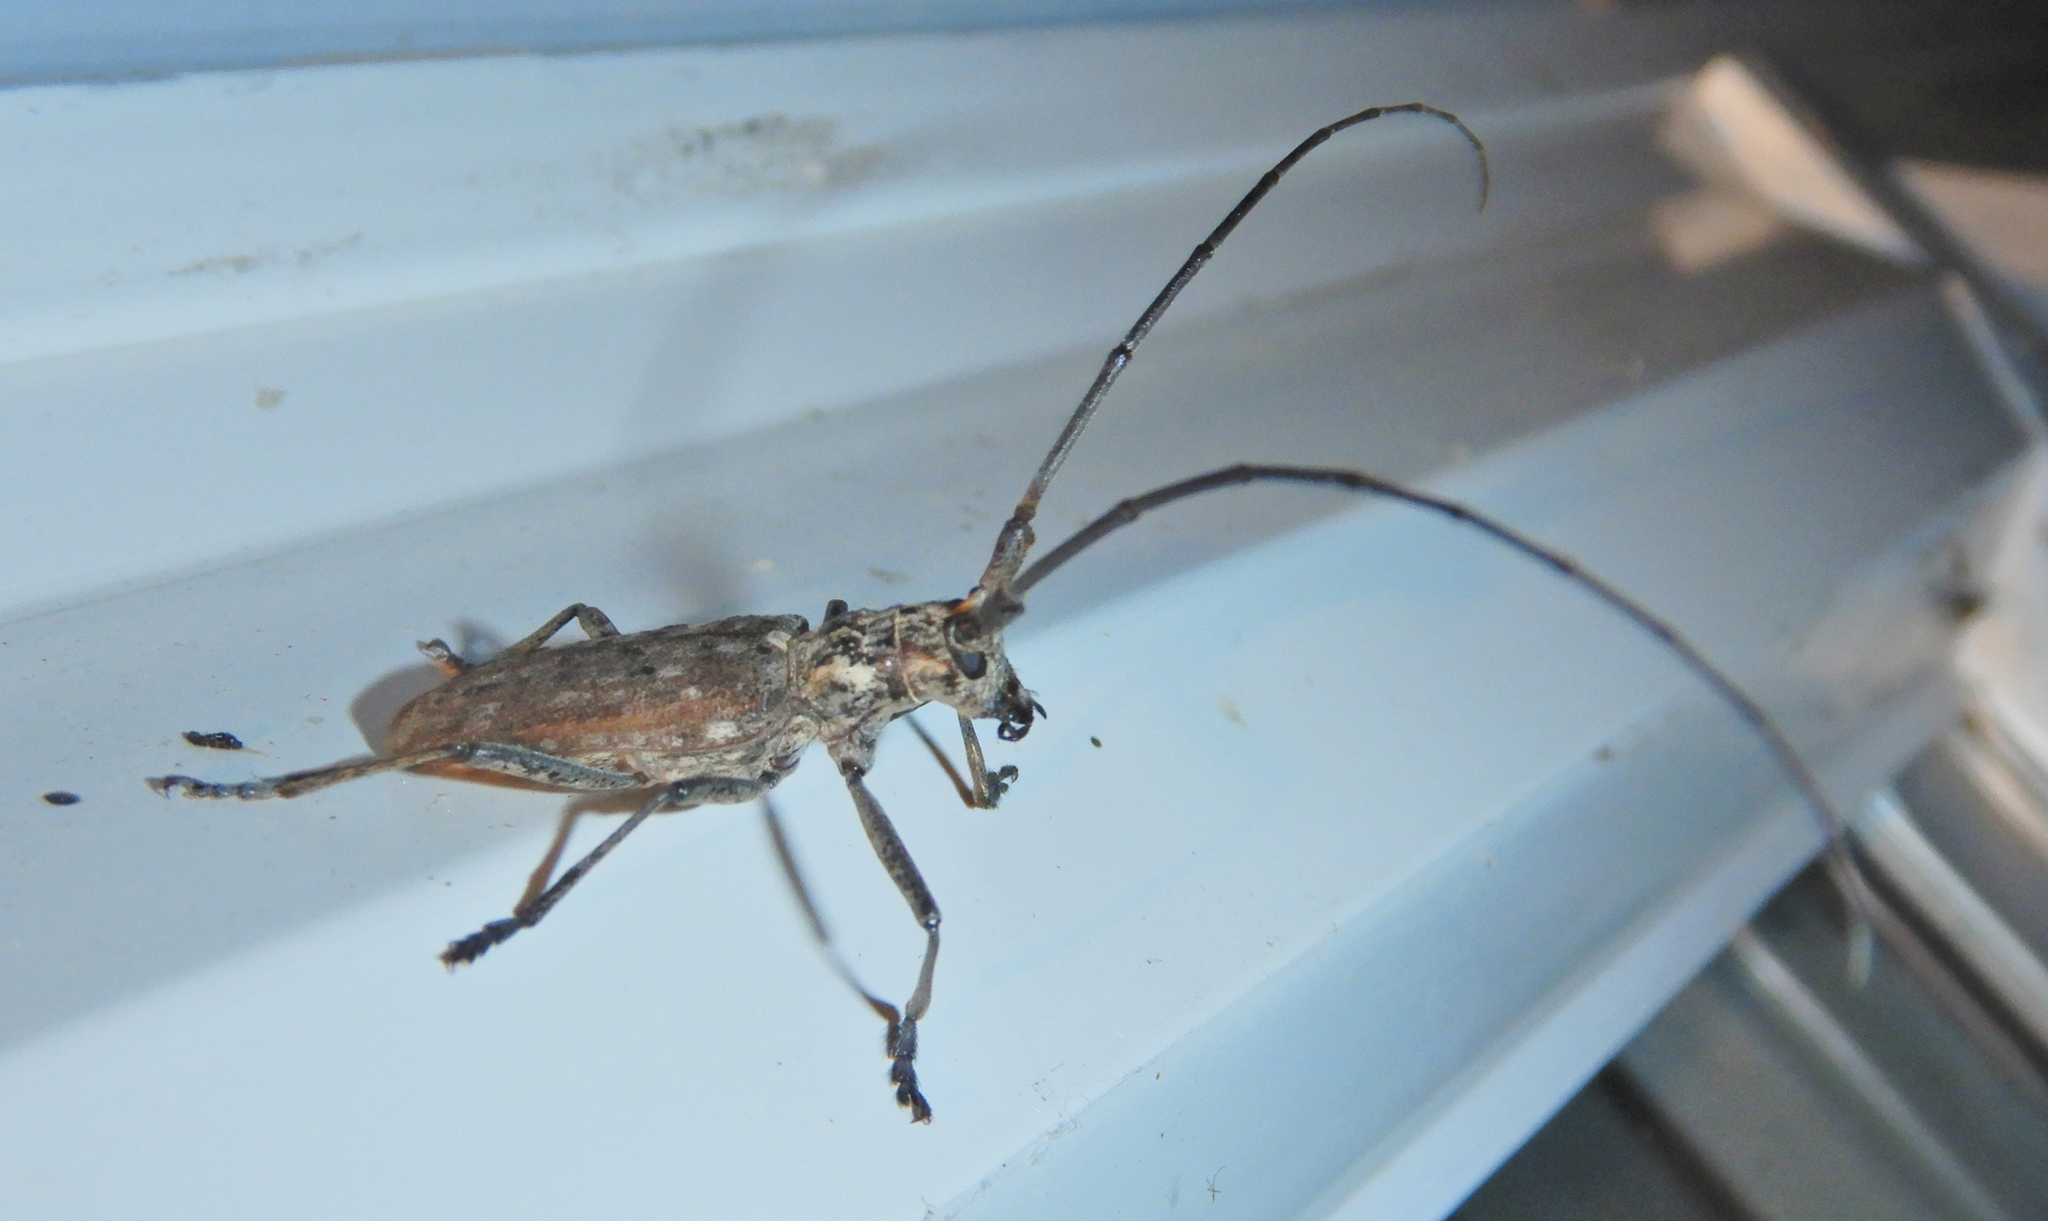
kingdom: Animalia
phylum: Arthropoda
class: Insecta
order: Coleoptera
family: Cerambycidae
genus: Monochamus
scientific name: Monochamus notatus
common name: Northeastern pine sawyer beetle
